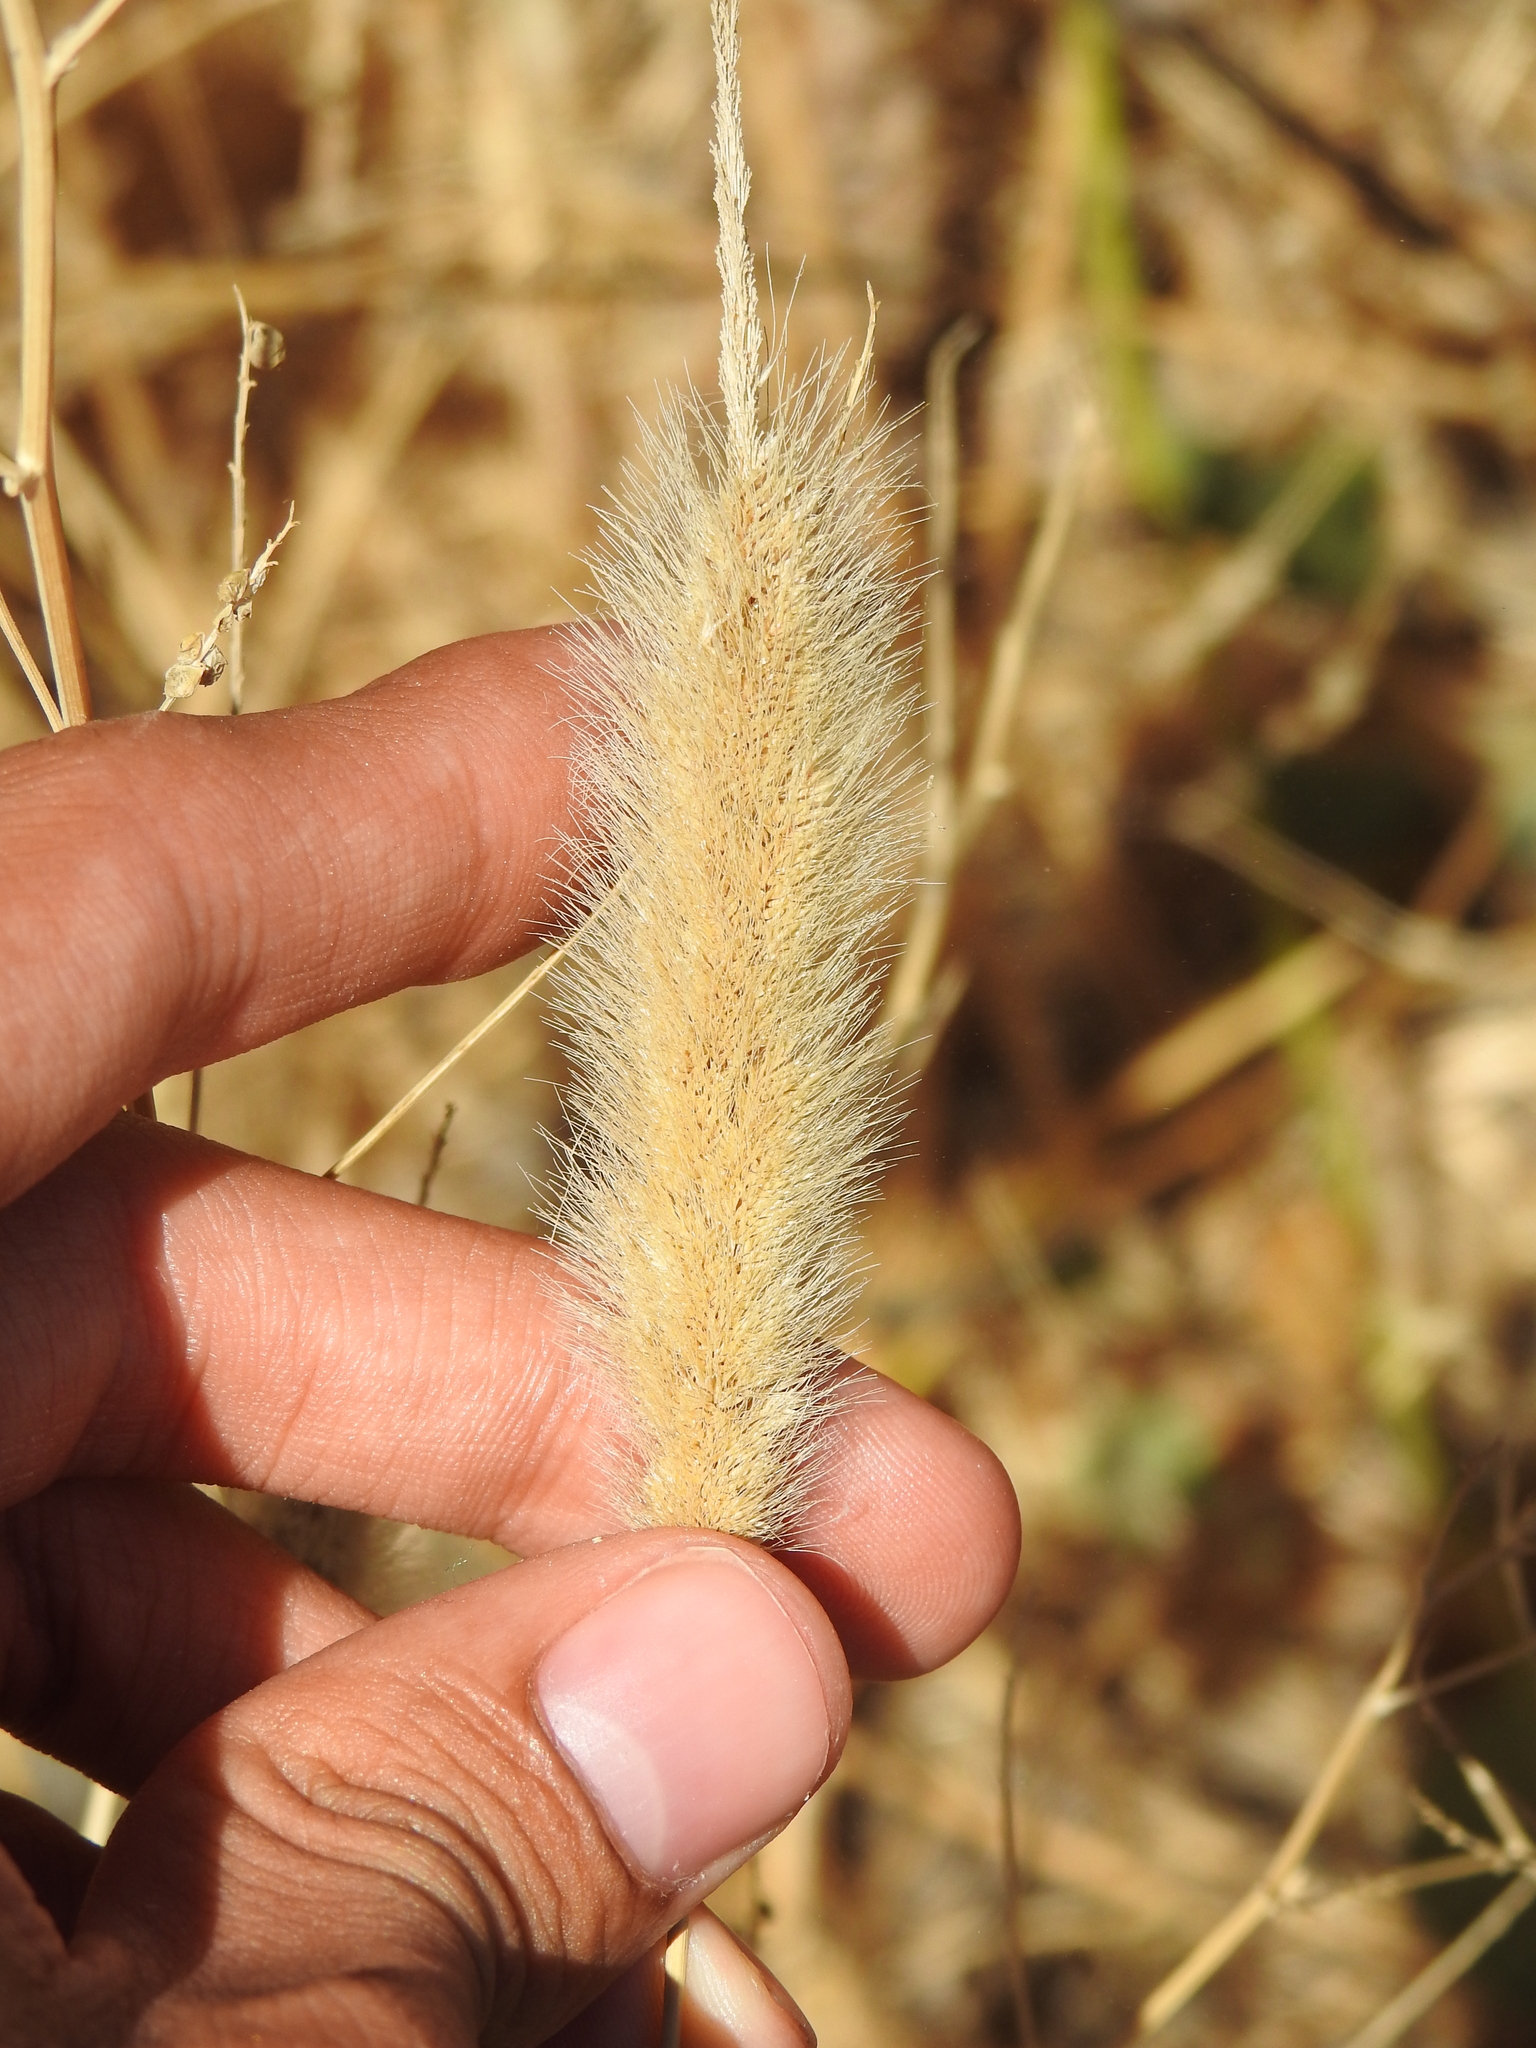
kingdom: Plantae
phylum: Tracheophyta
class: Liliopsida
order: Poales
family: Poaceae
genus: Polypogon
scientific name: Polypogon monspeliensis
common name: Annual rabbitsfoot grass
